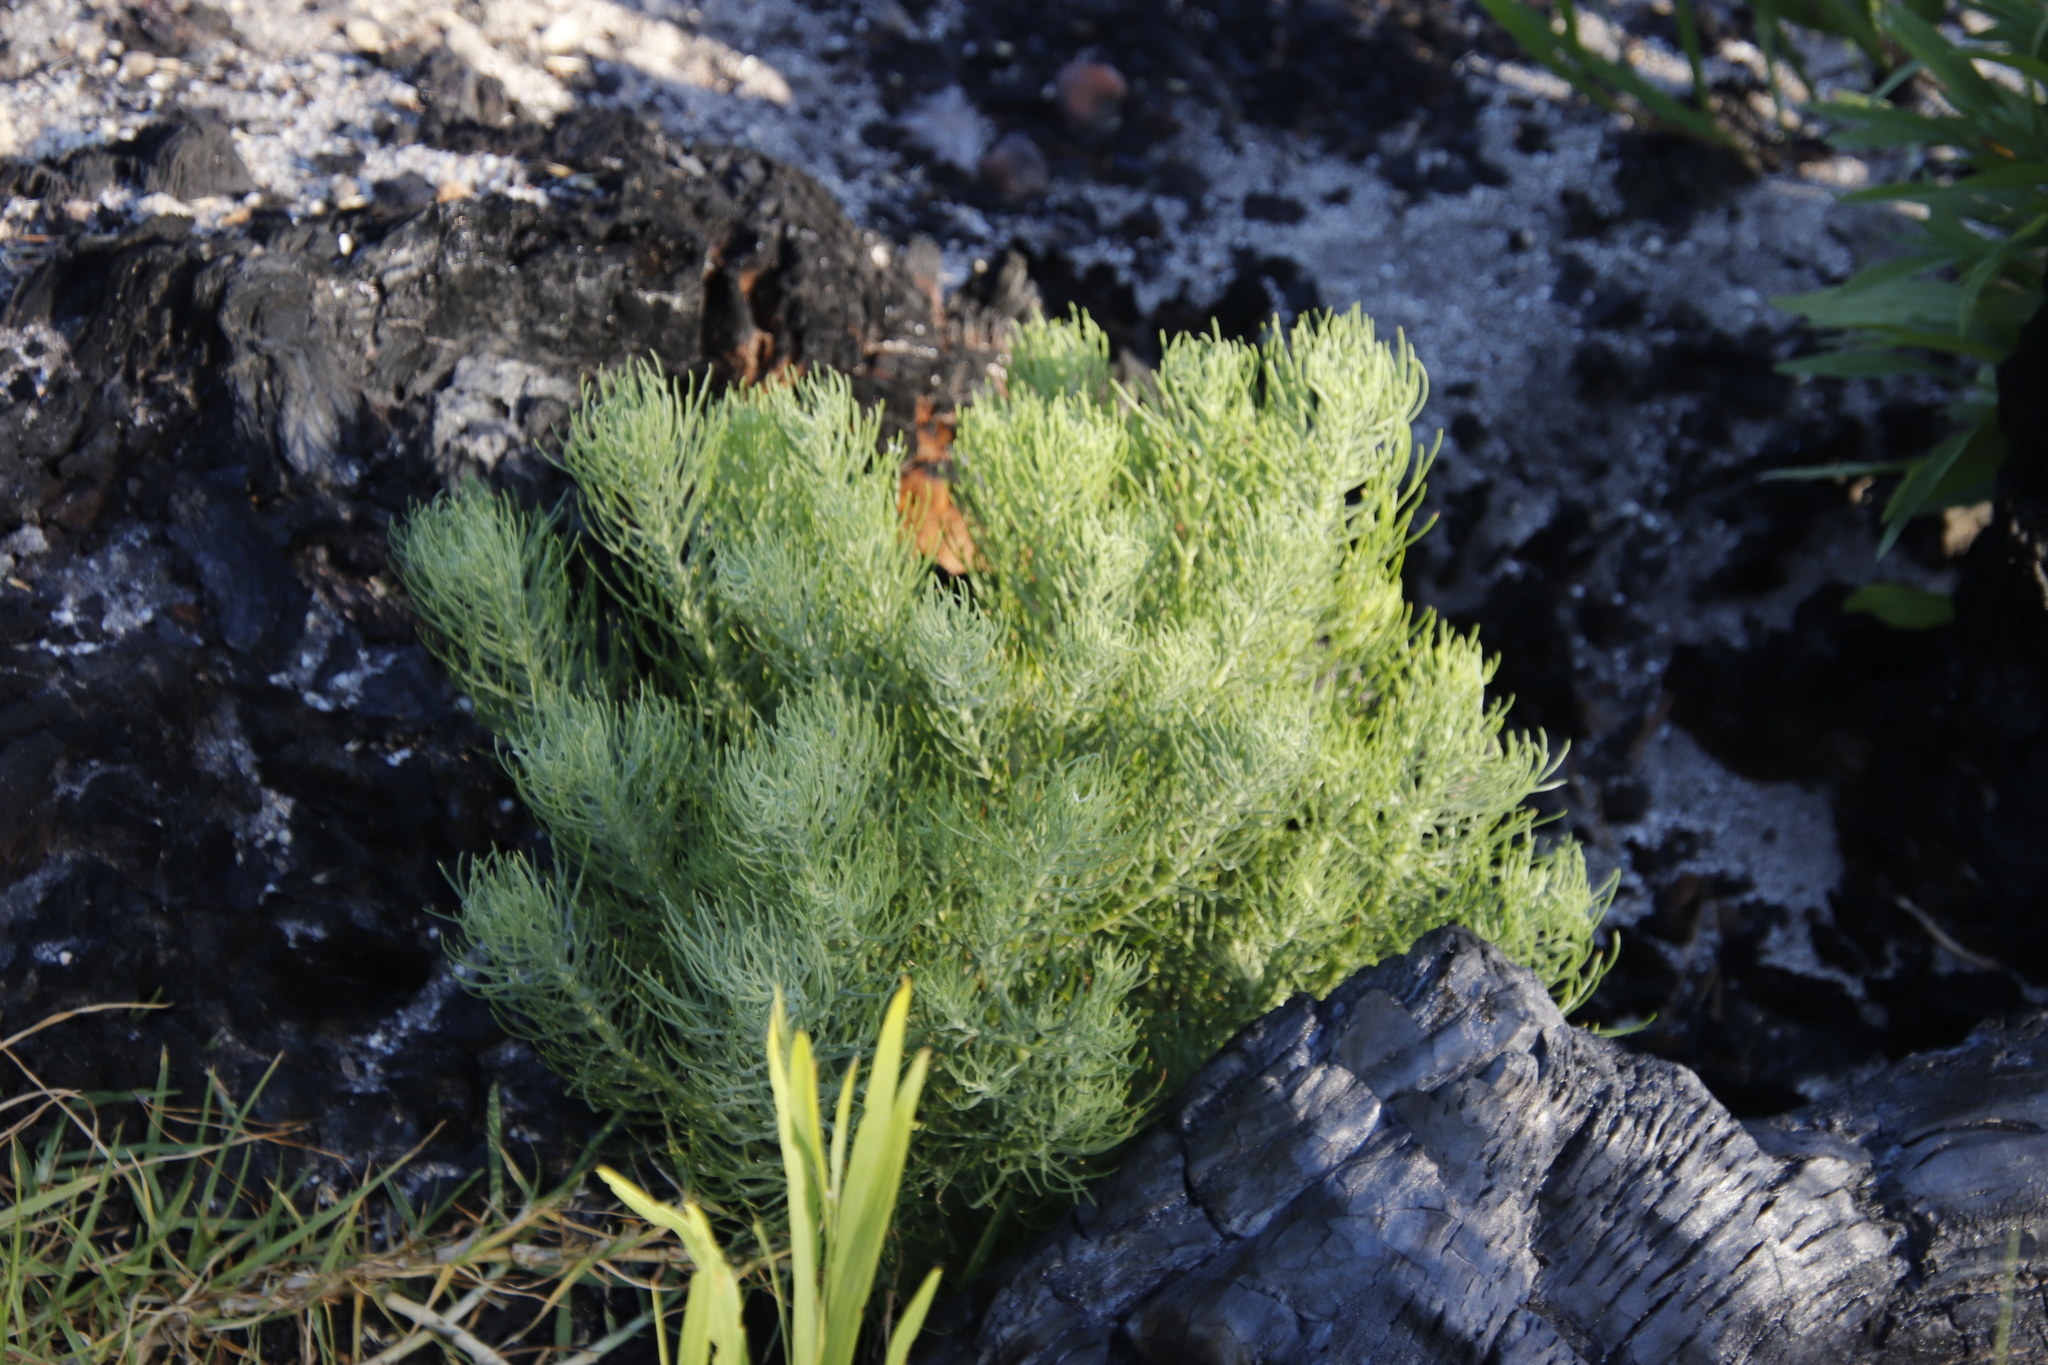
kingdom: Plantae
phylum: Tracheophyta
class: Magnoliopsida
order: Asterales
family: Asteraceae
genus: Athanasia
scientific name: Athanasia crithmifolia
